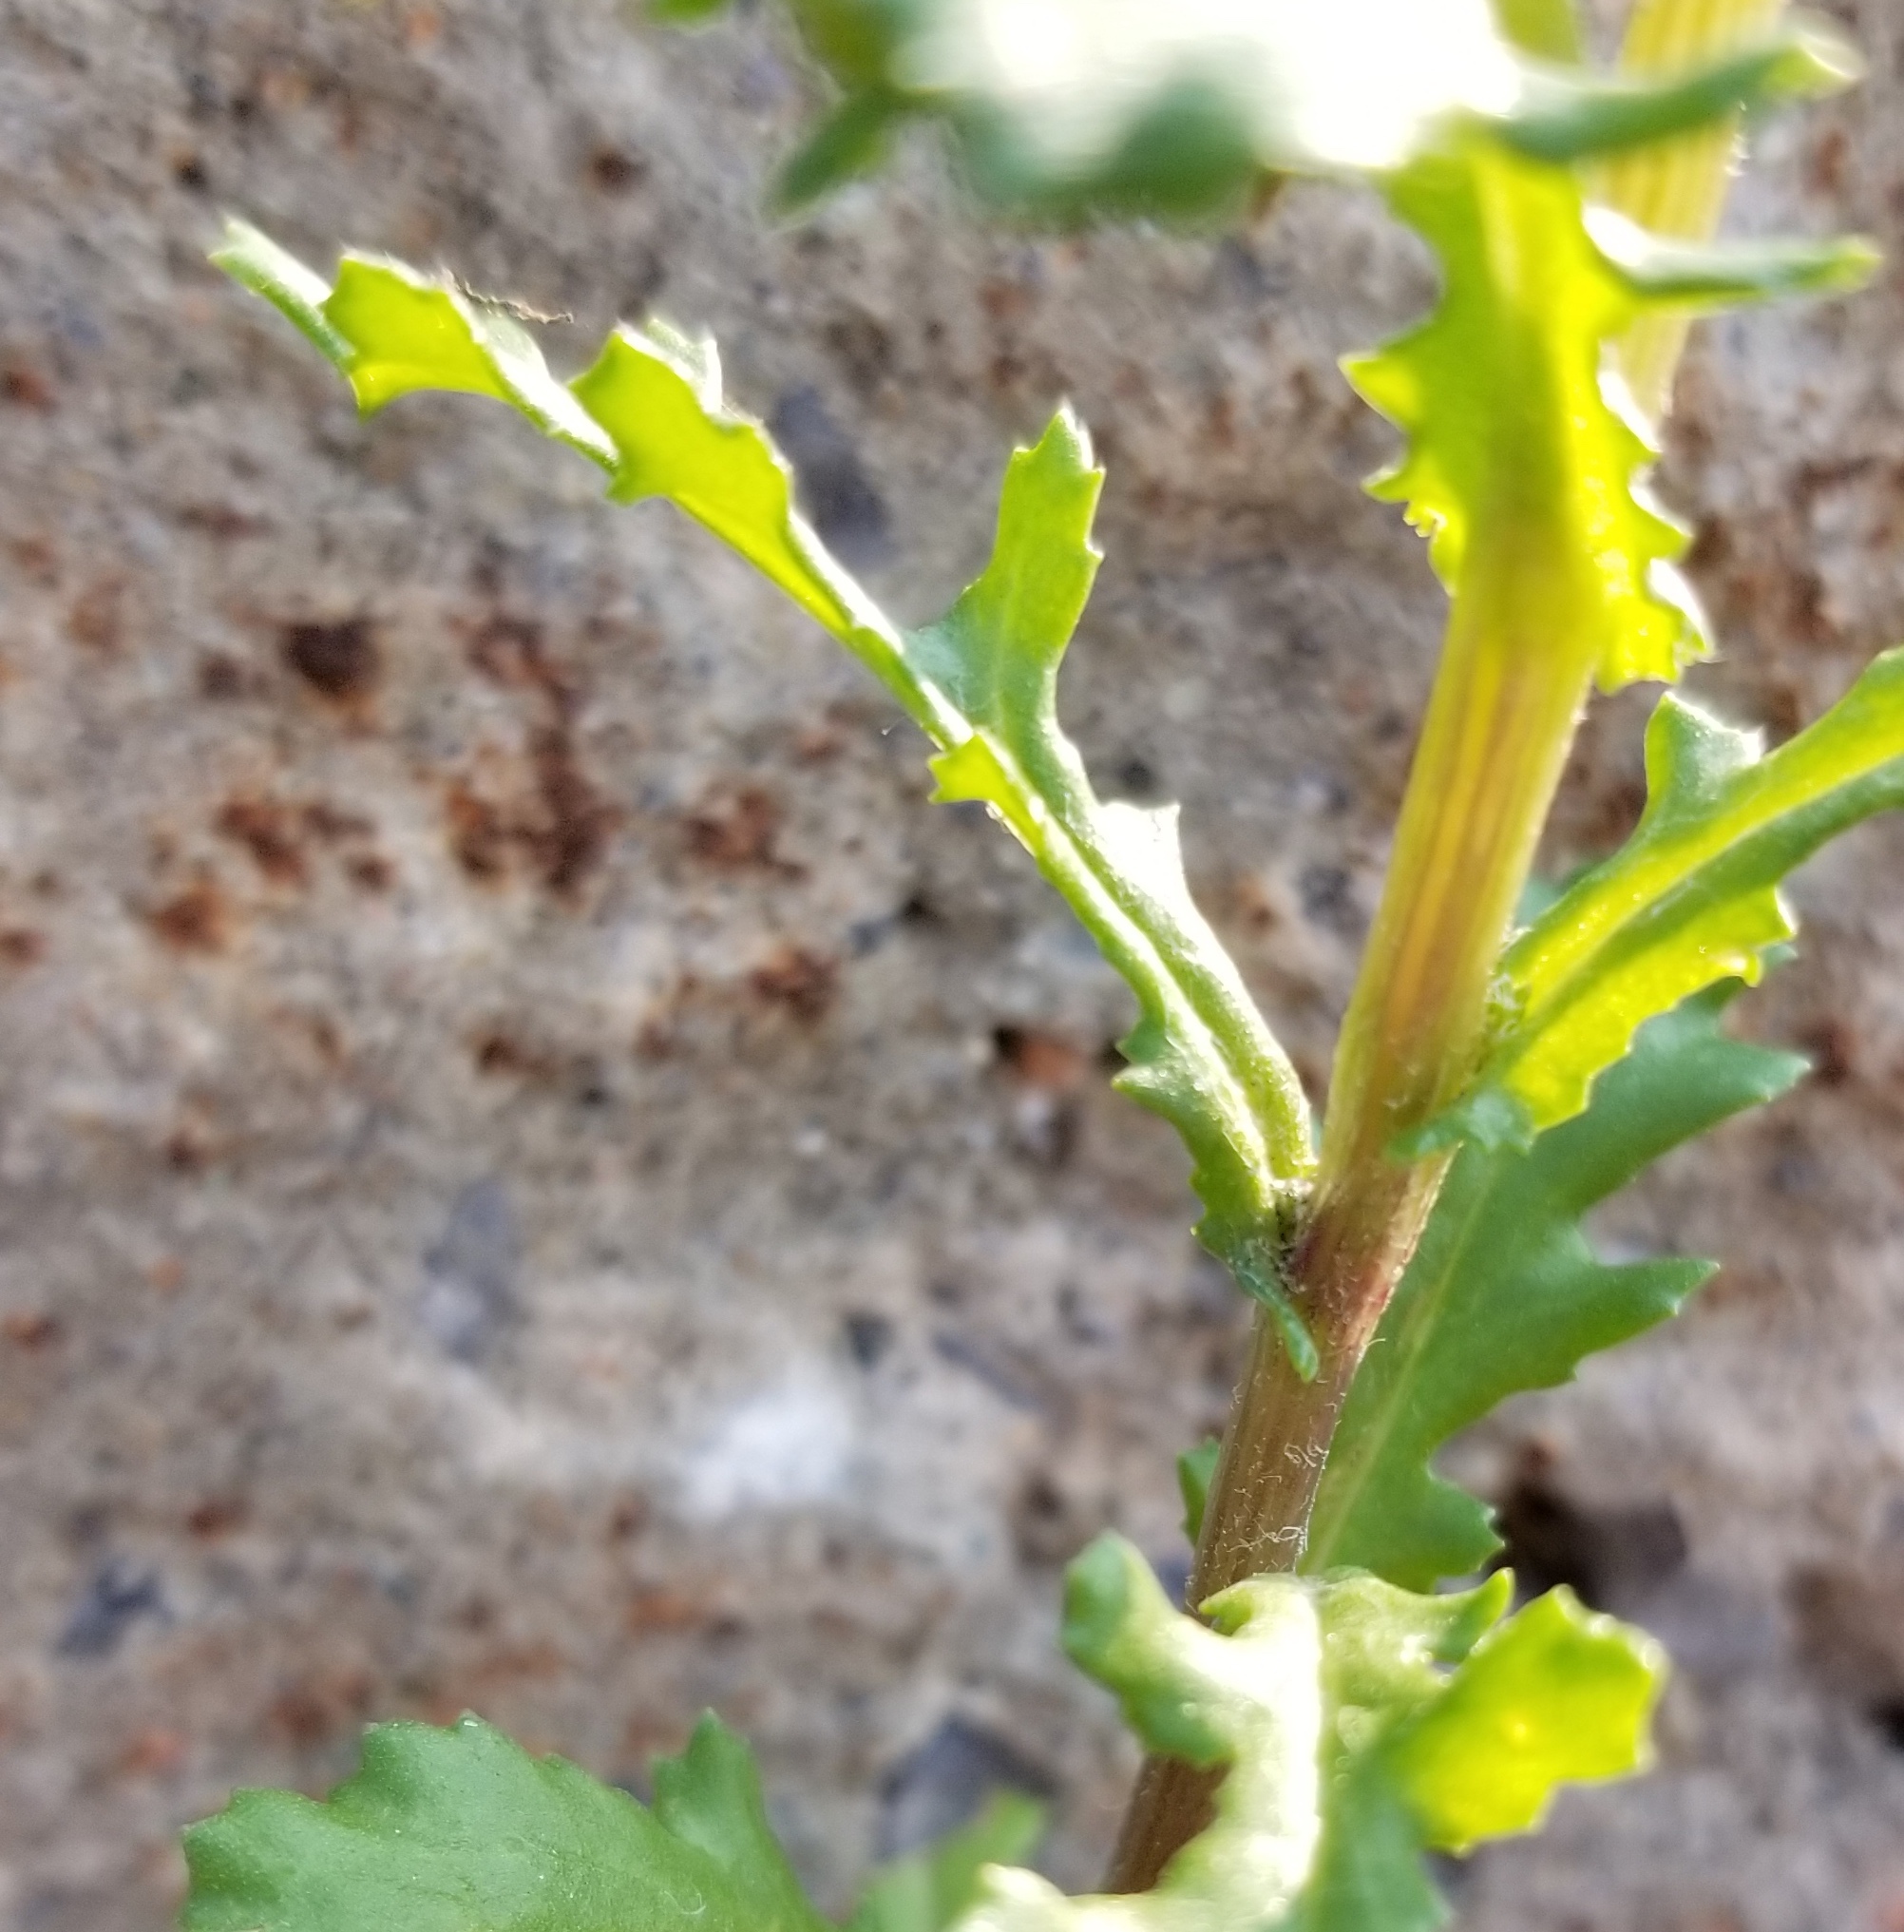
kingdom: Plantae
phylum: Tracheophyta
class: Magnoliopsida
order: Asterales
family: Asteraceae
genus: Senecio
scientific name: Senecio vulgaris
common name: Old-man-in-the-spring
